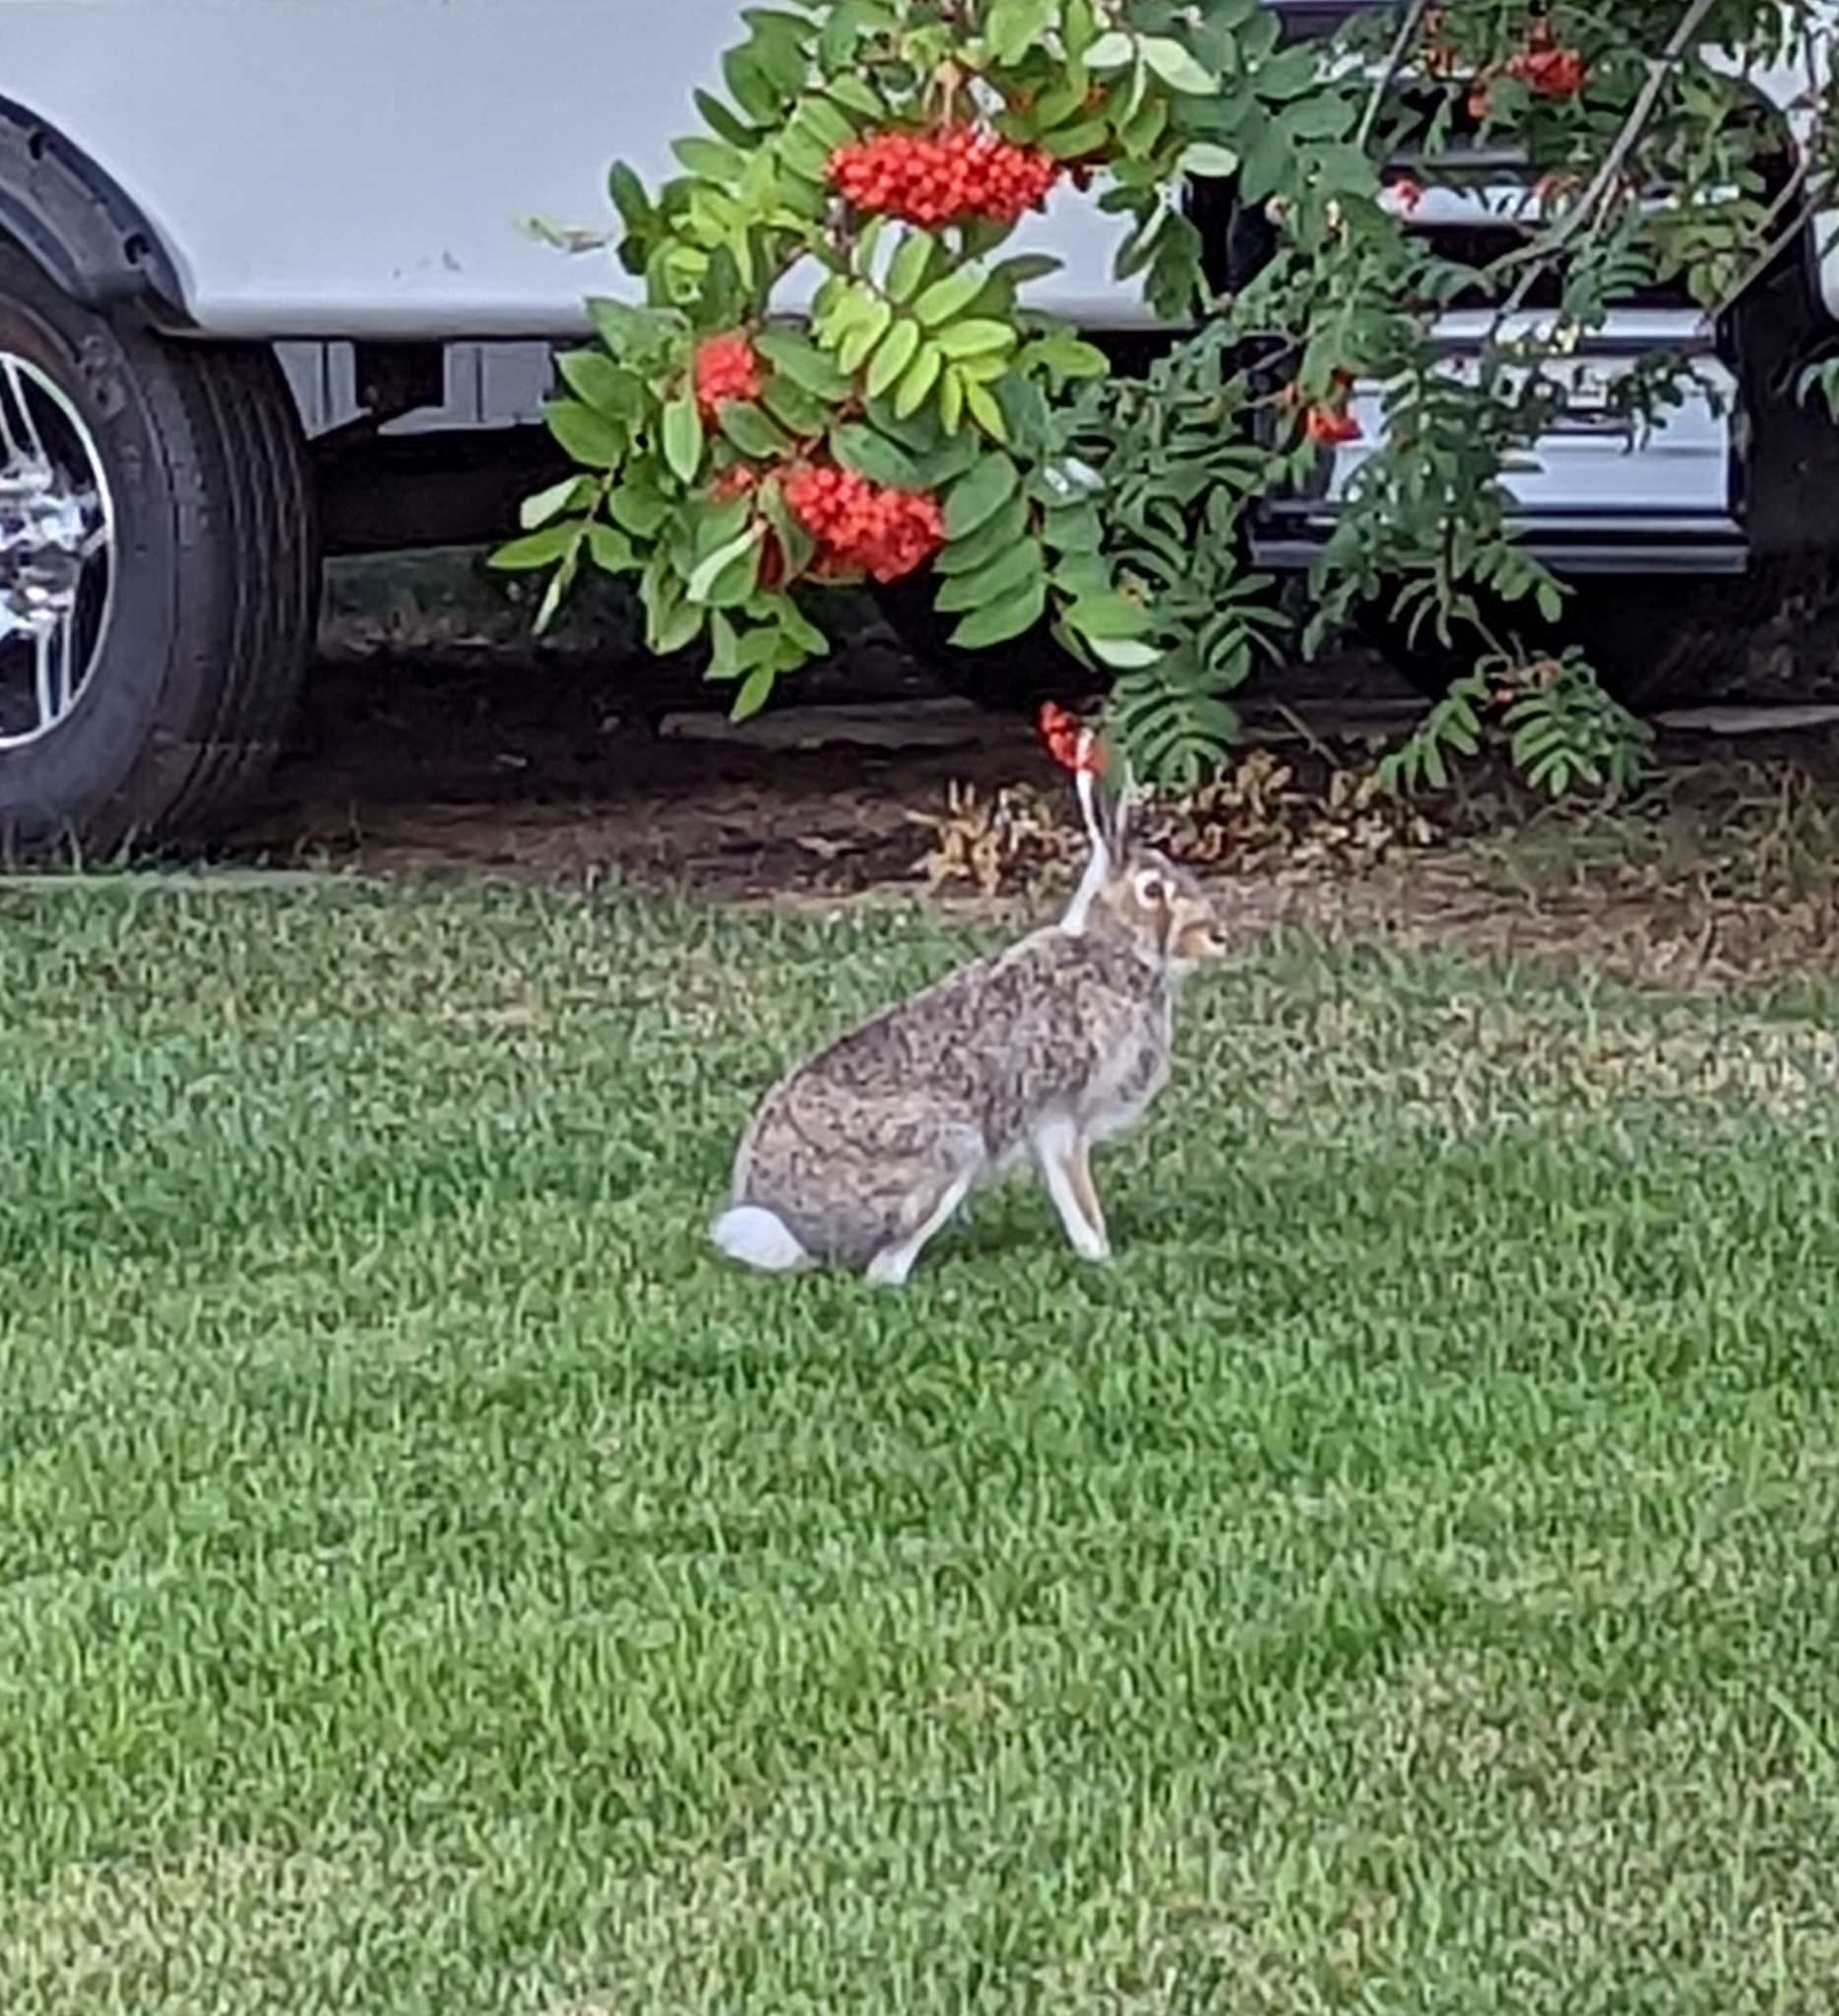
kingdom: Animalia
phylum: Chordata
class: Mammalia
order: Lagomorpha
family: Leporidae
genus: Lepus
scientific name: Lepus townsendii
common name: White-tailed jackrabbit
